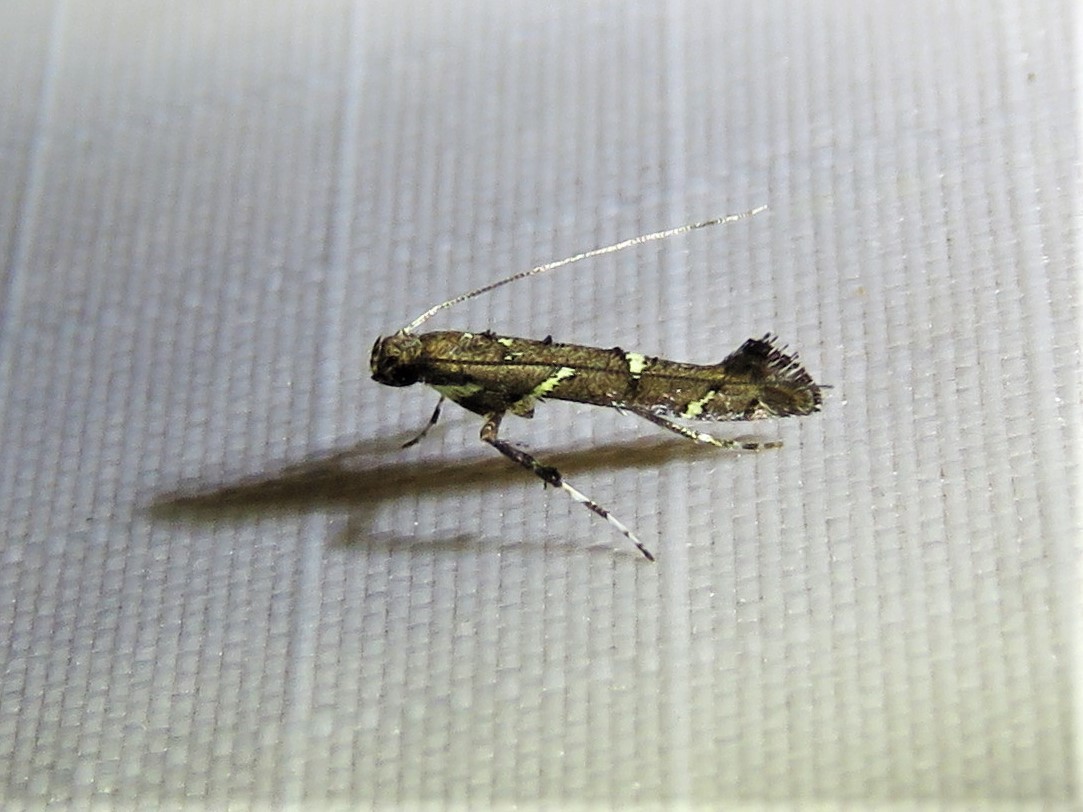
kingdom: Animalia
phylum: Arthropoda
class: Insecta
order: Lepidoptera
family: Gracillariidae
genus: Caloptilia
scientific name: Caloptilia triadicae
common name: Tallow leaf roller
